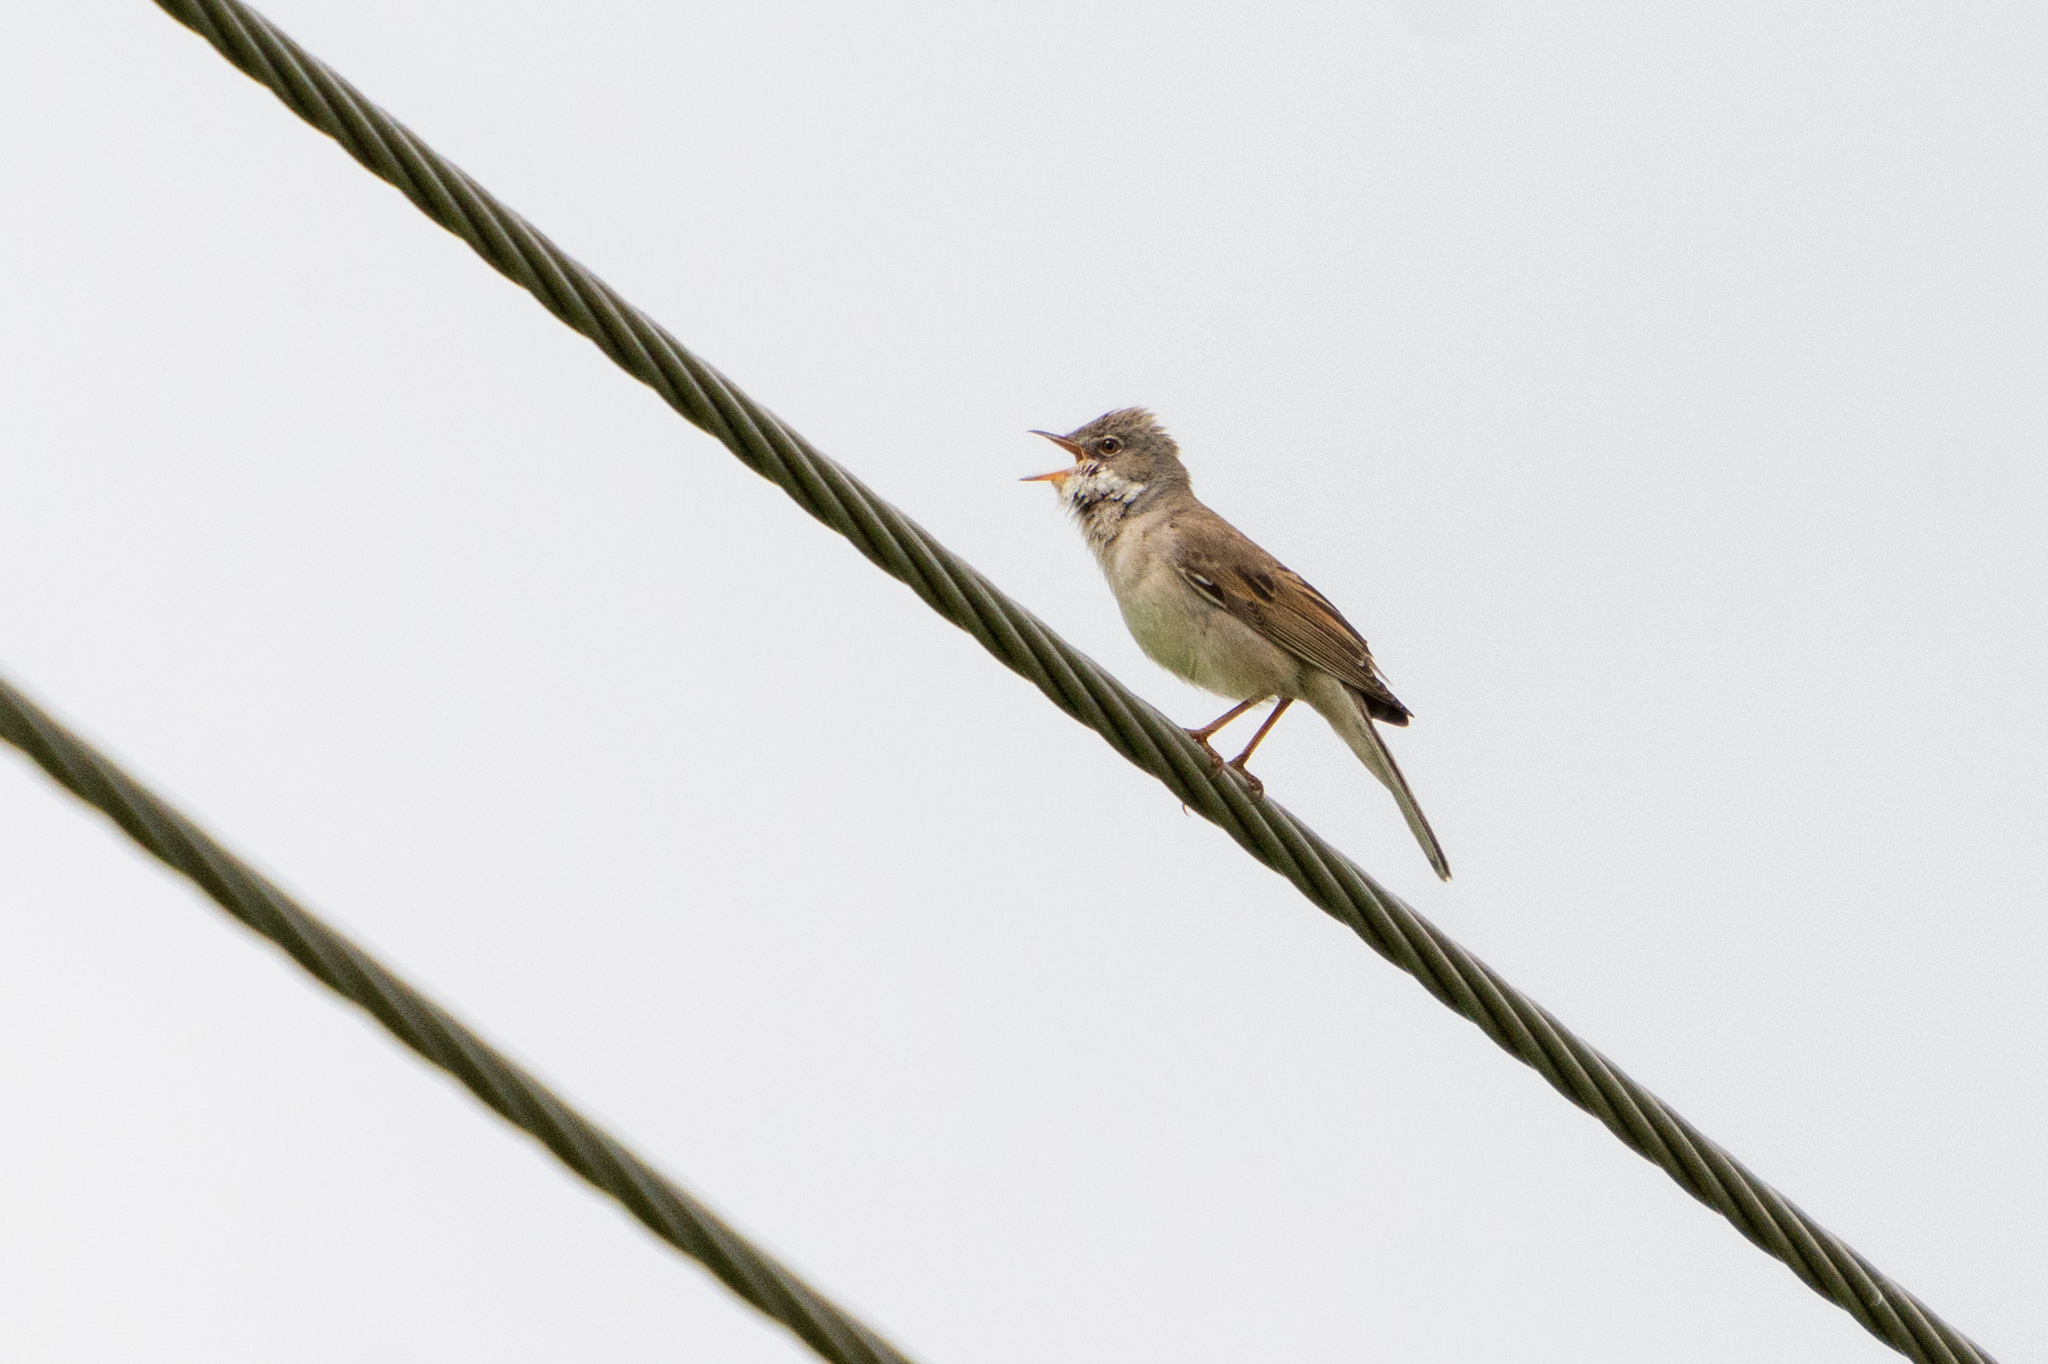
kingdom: Animalia
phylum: Chordata
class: Aves
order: Passeriformes
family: Sylviidae
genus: Sylvia
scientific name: Sylvia communis
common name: Common whitethroat
